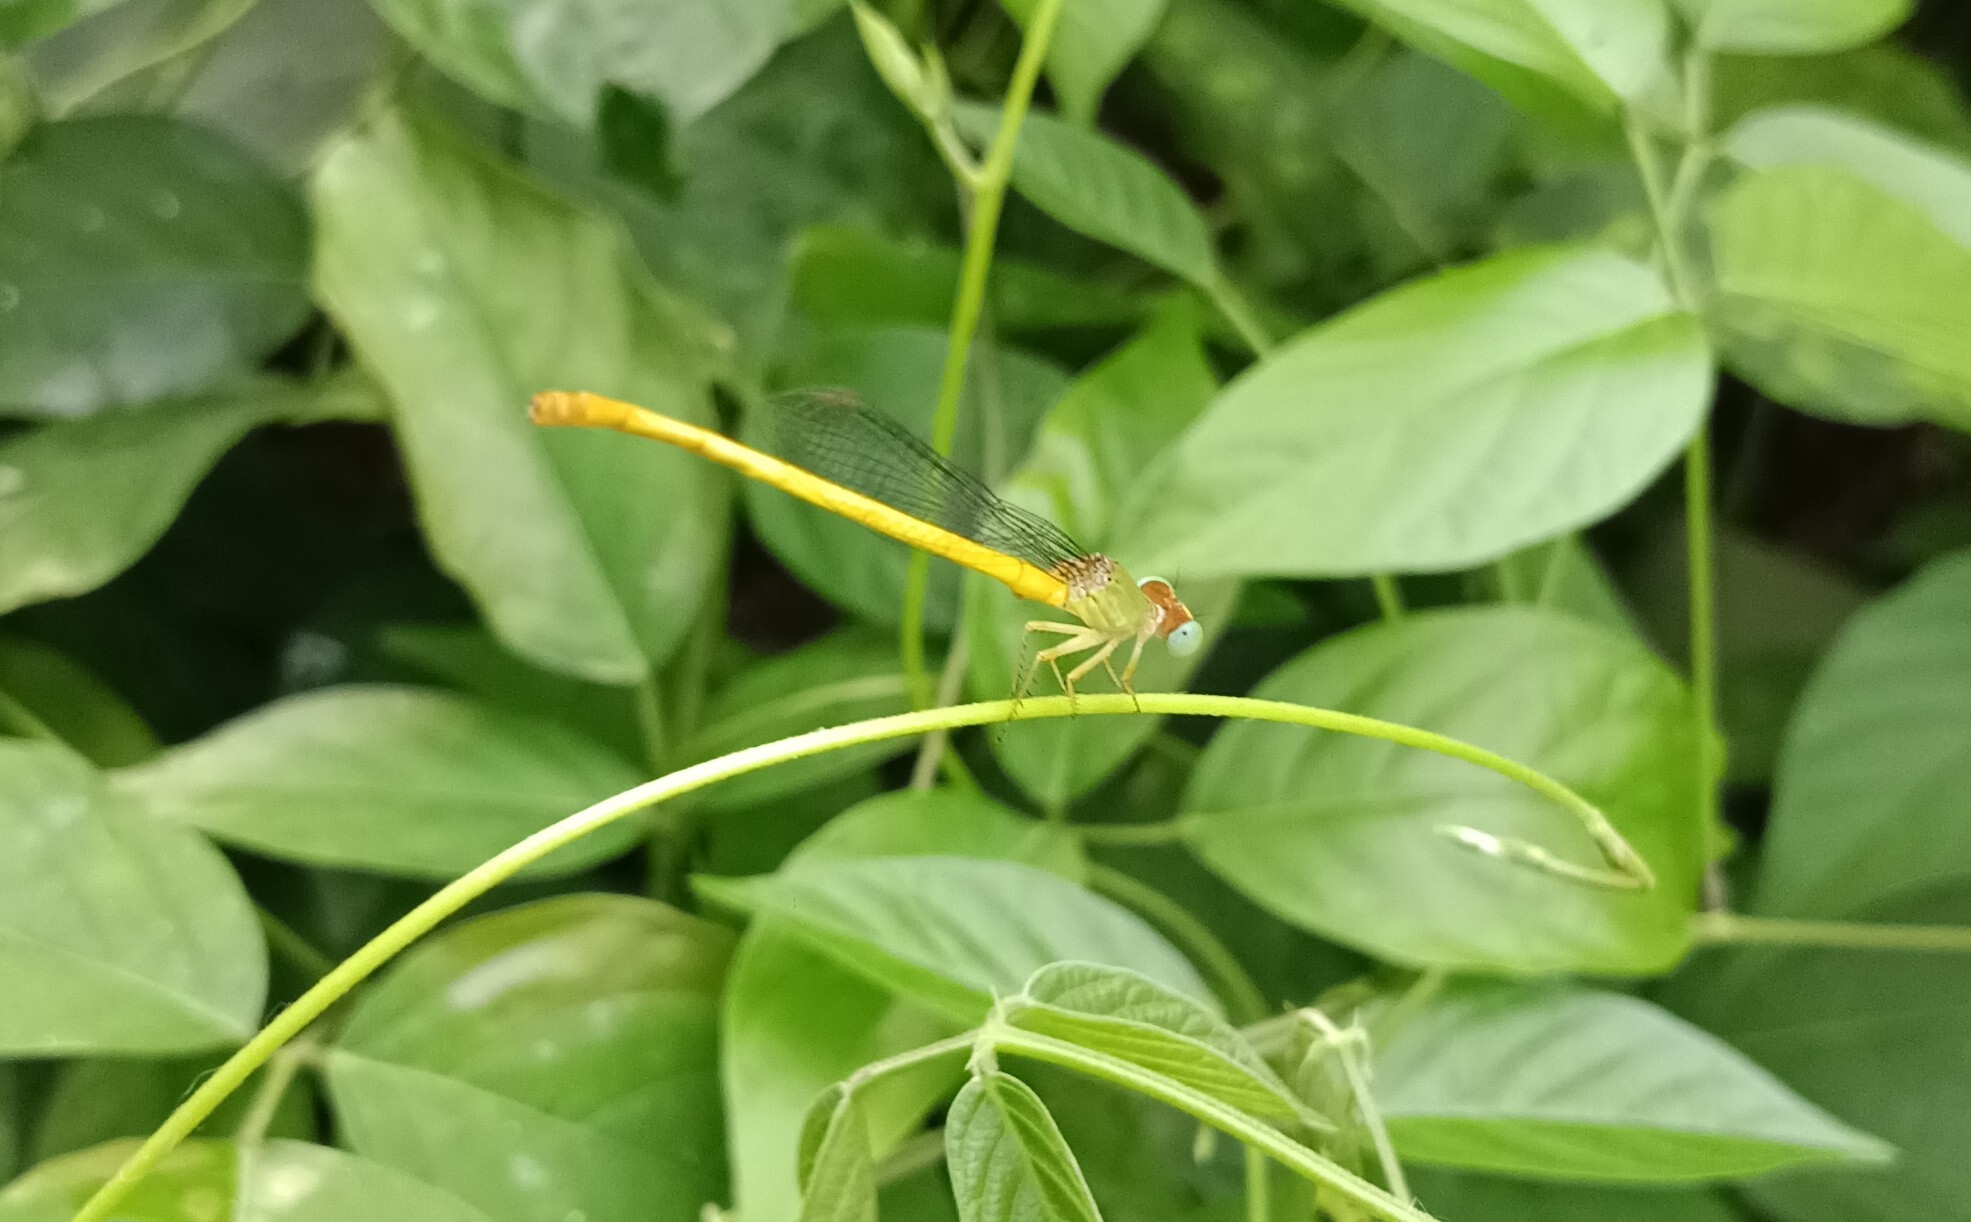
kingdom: Animalia
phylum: Arthropoda
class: Insecta
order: Odonata
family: Coenagrionidae
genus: Ceriagrion
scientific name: Ceriagrion coromandelianum
